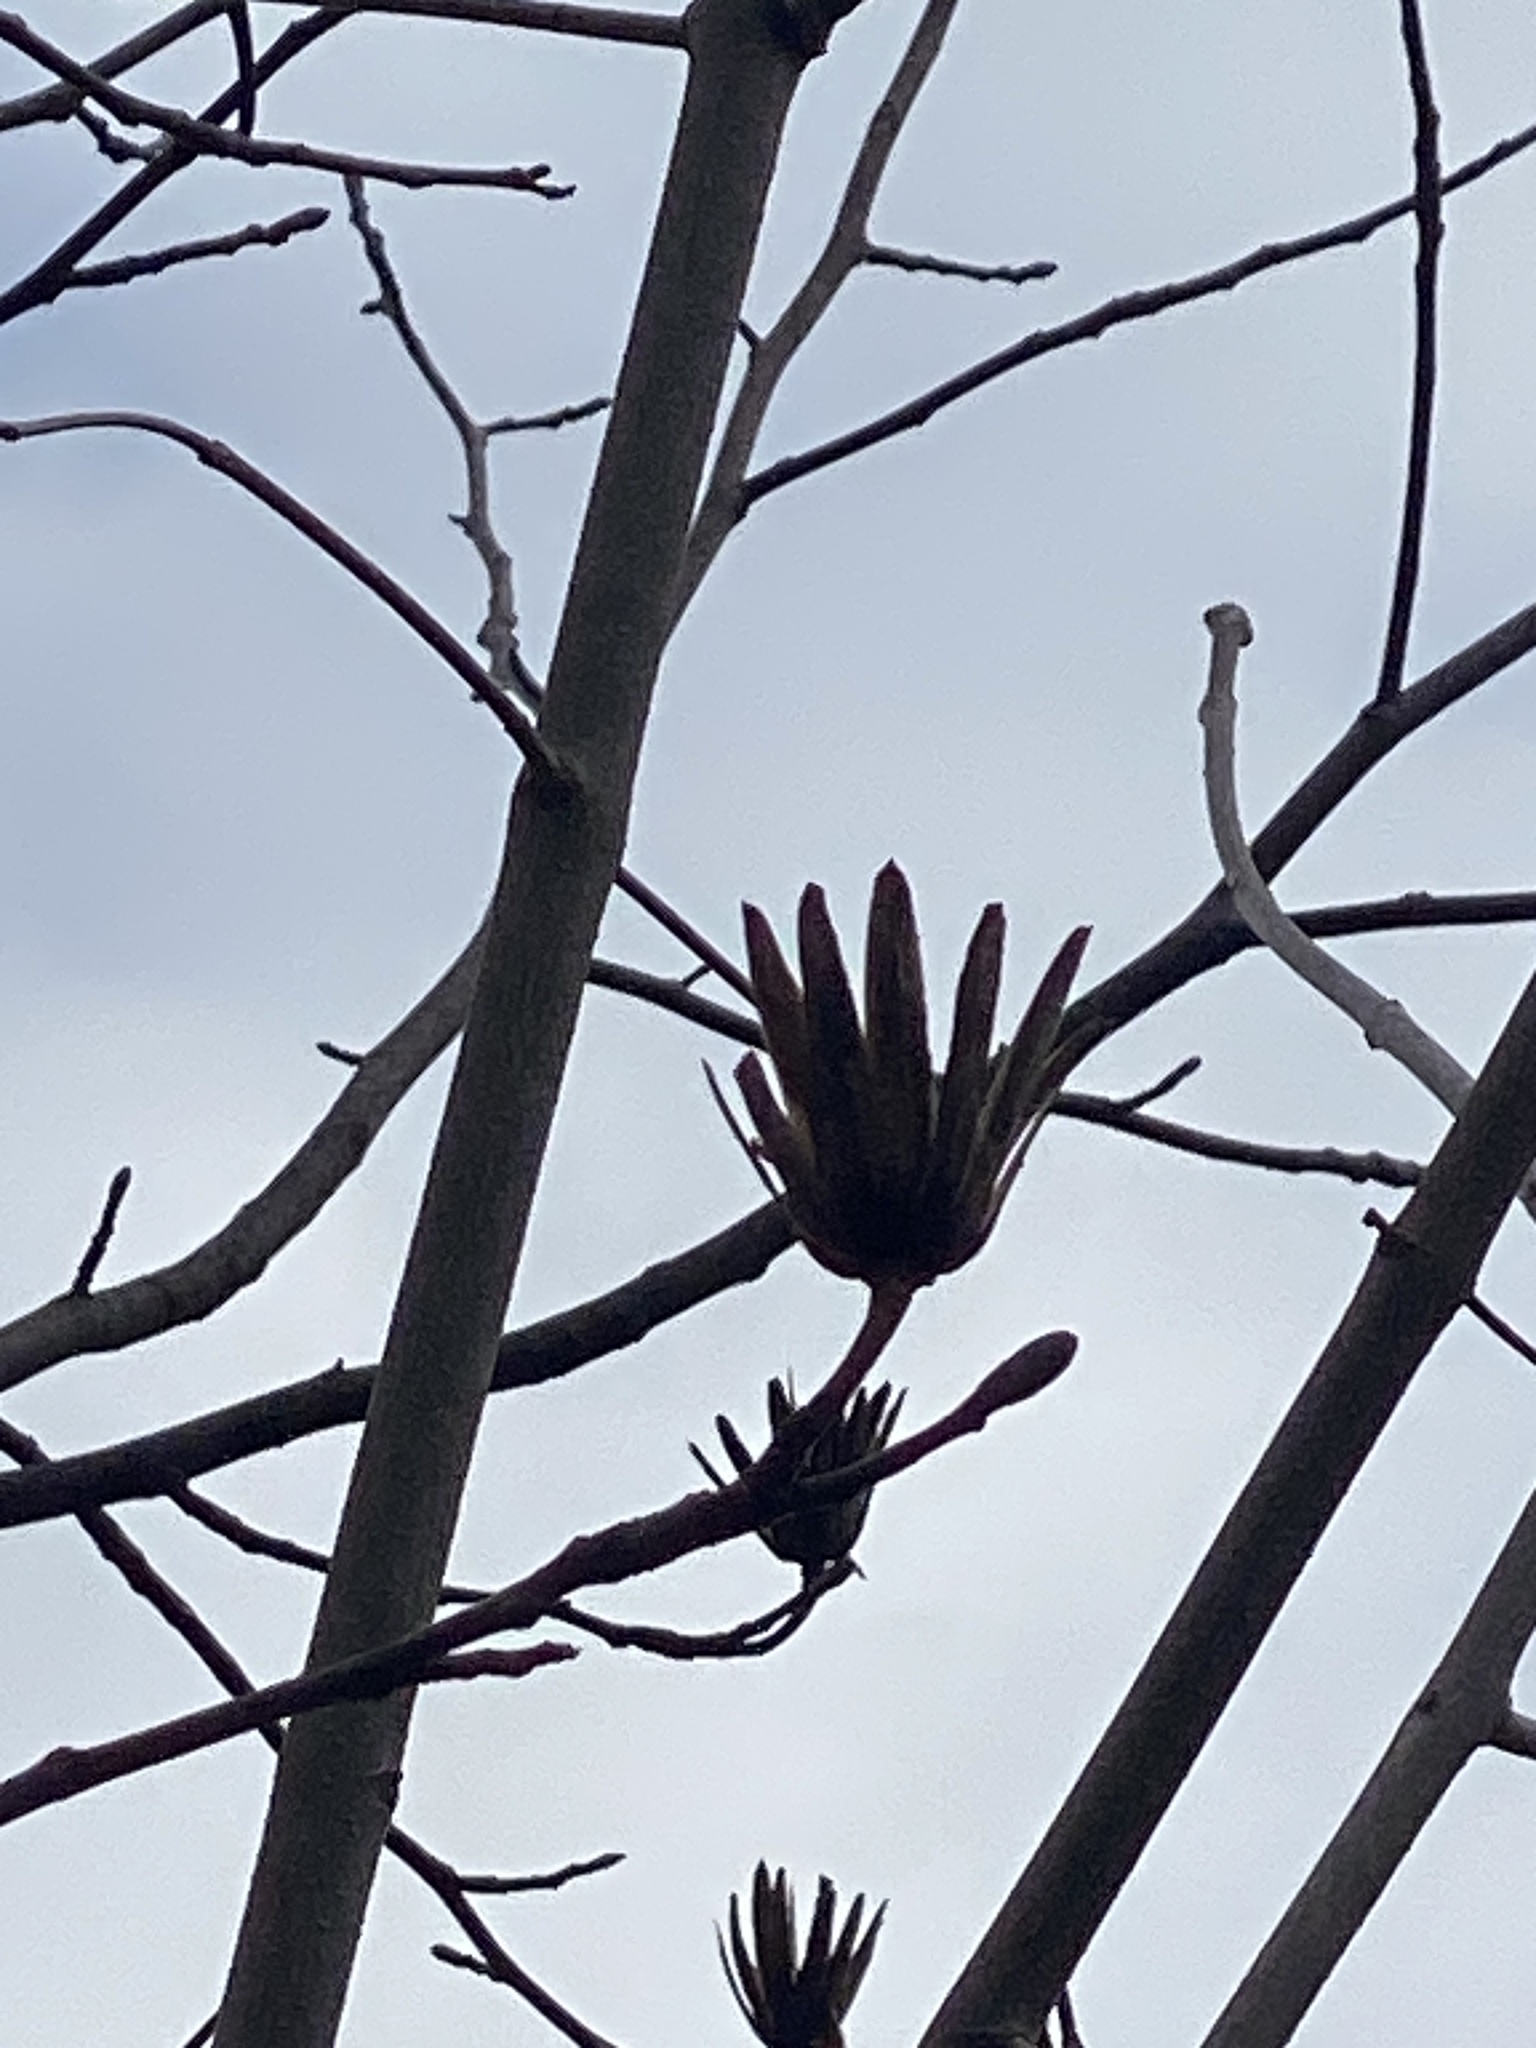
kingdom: Plantae
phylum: Tracheophyta
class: Magnoliopsida
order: Magnoliales
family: Magnoliaceae
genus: Liriodendron
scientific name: Liriodendron tulipifera
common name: Tulip tree
